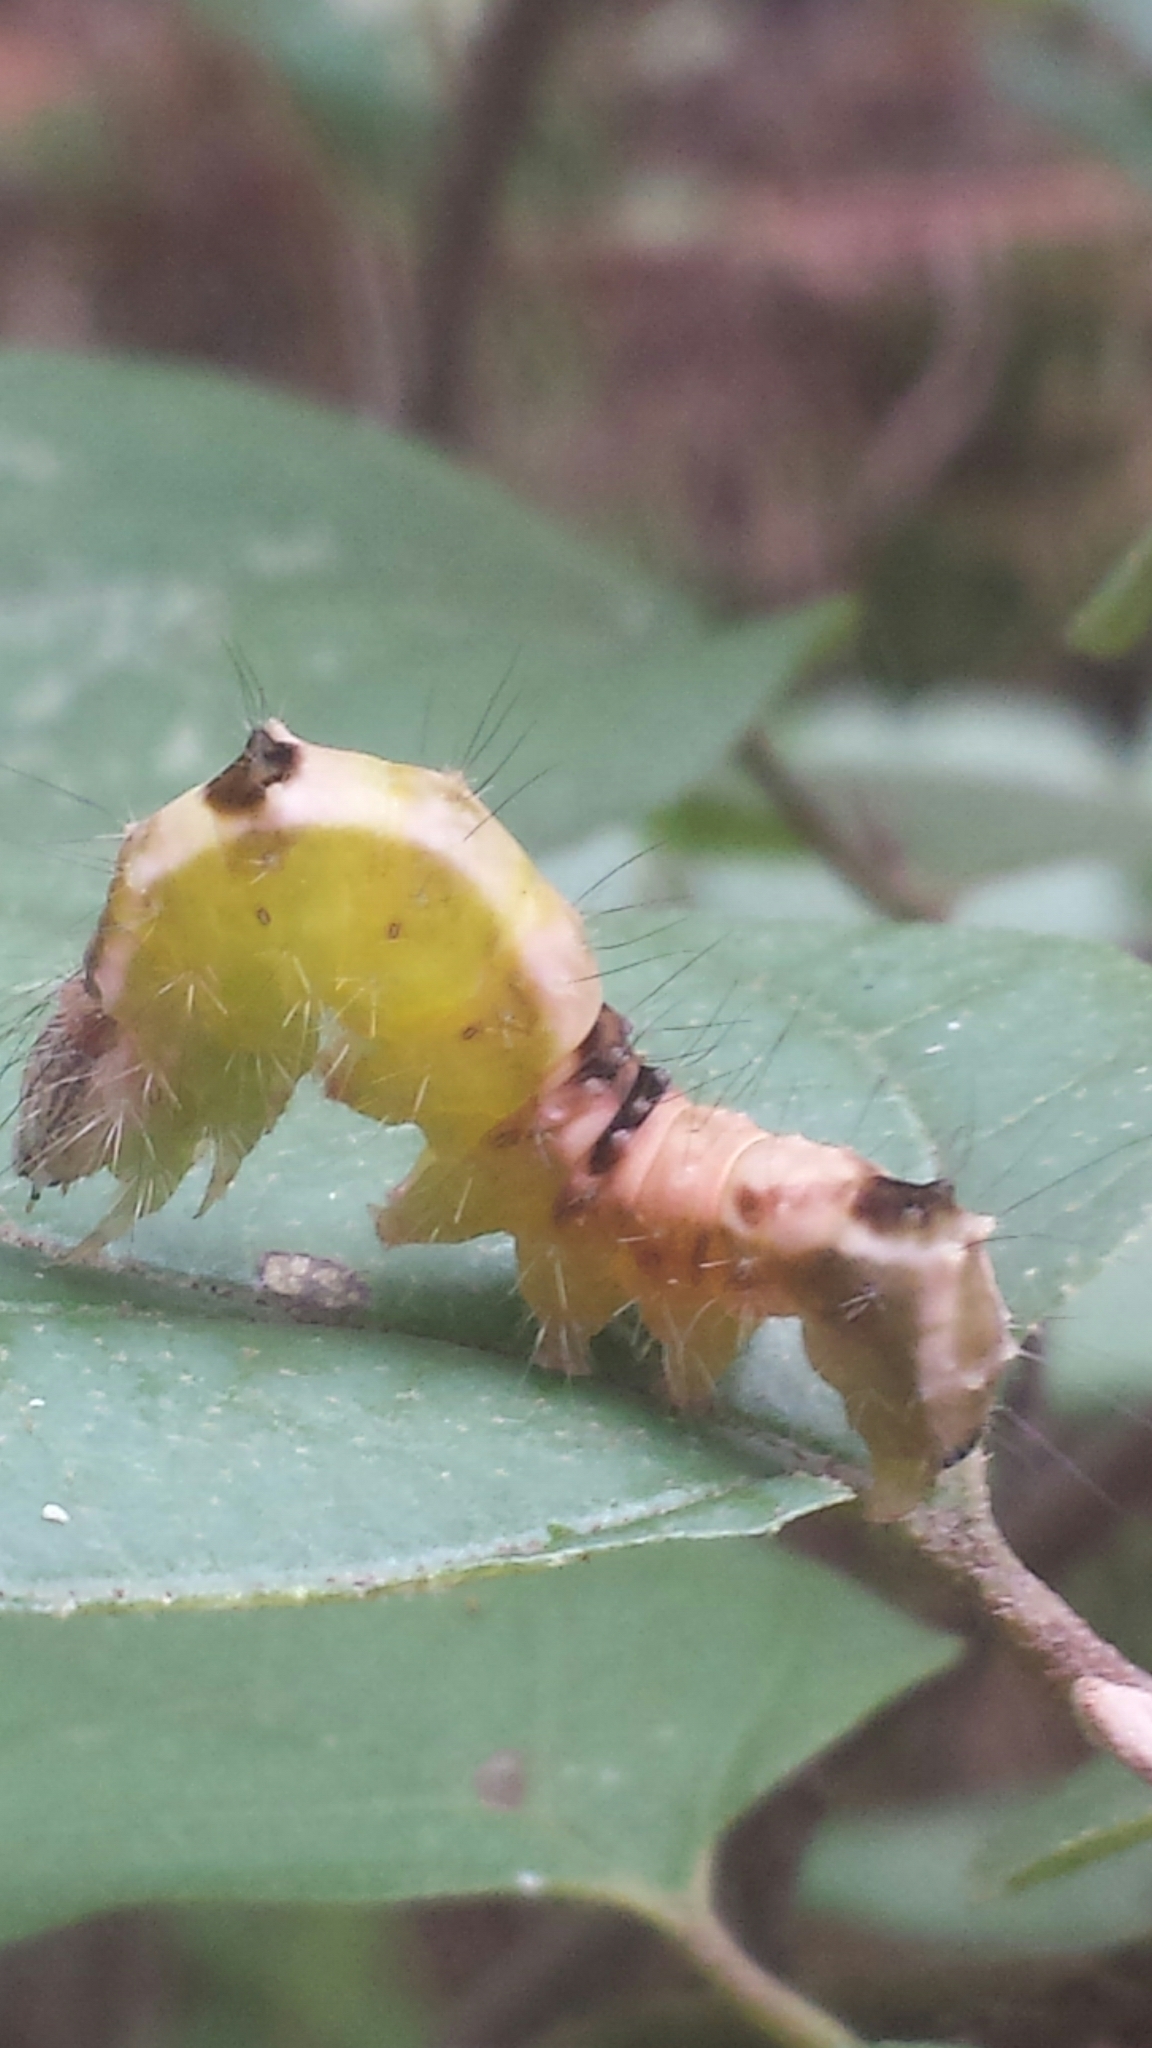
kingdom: Animalia
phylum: Arthropoda
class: Insecta
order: Lepidoptera
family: Noctuidae
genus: Acronicta
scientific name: Acronicta hamamelis
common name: Witch hazel dagger
